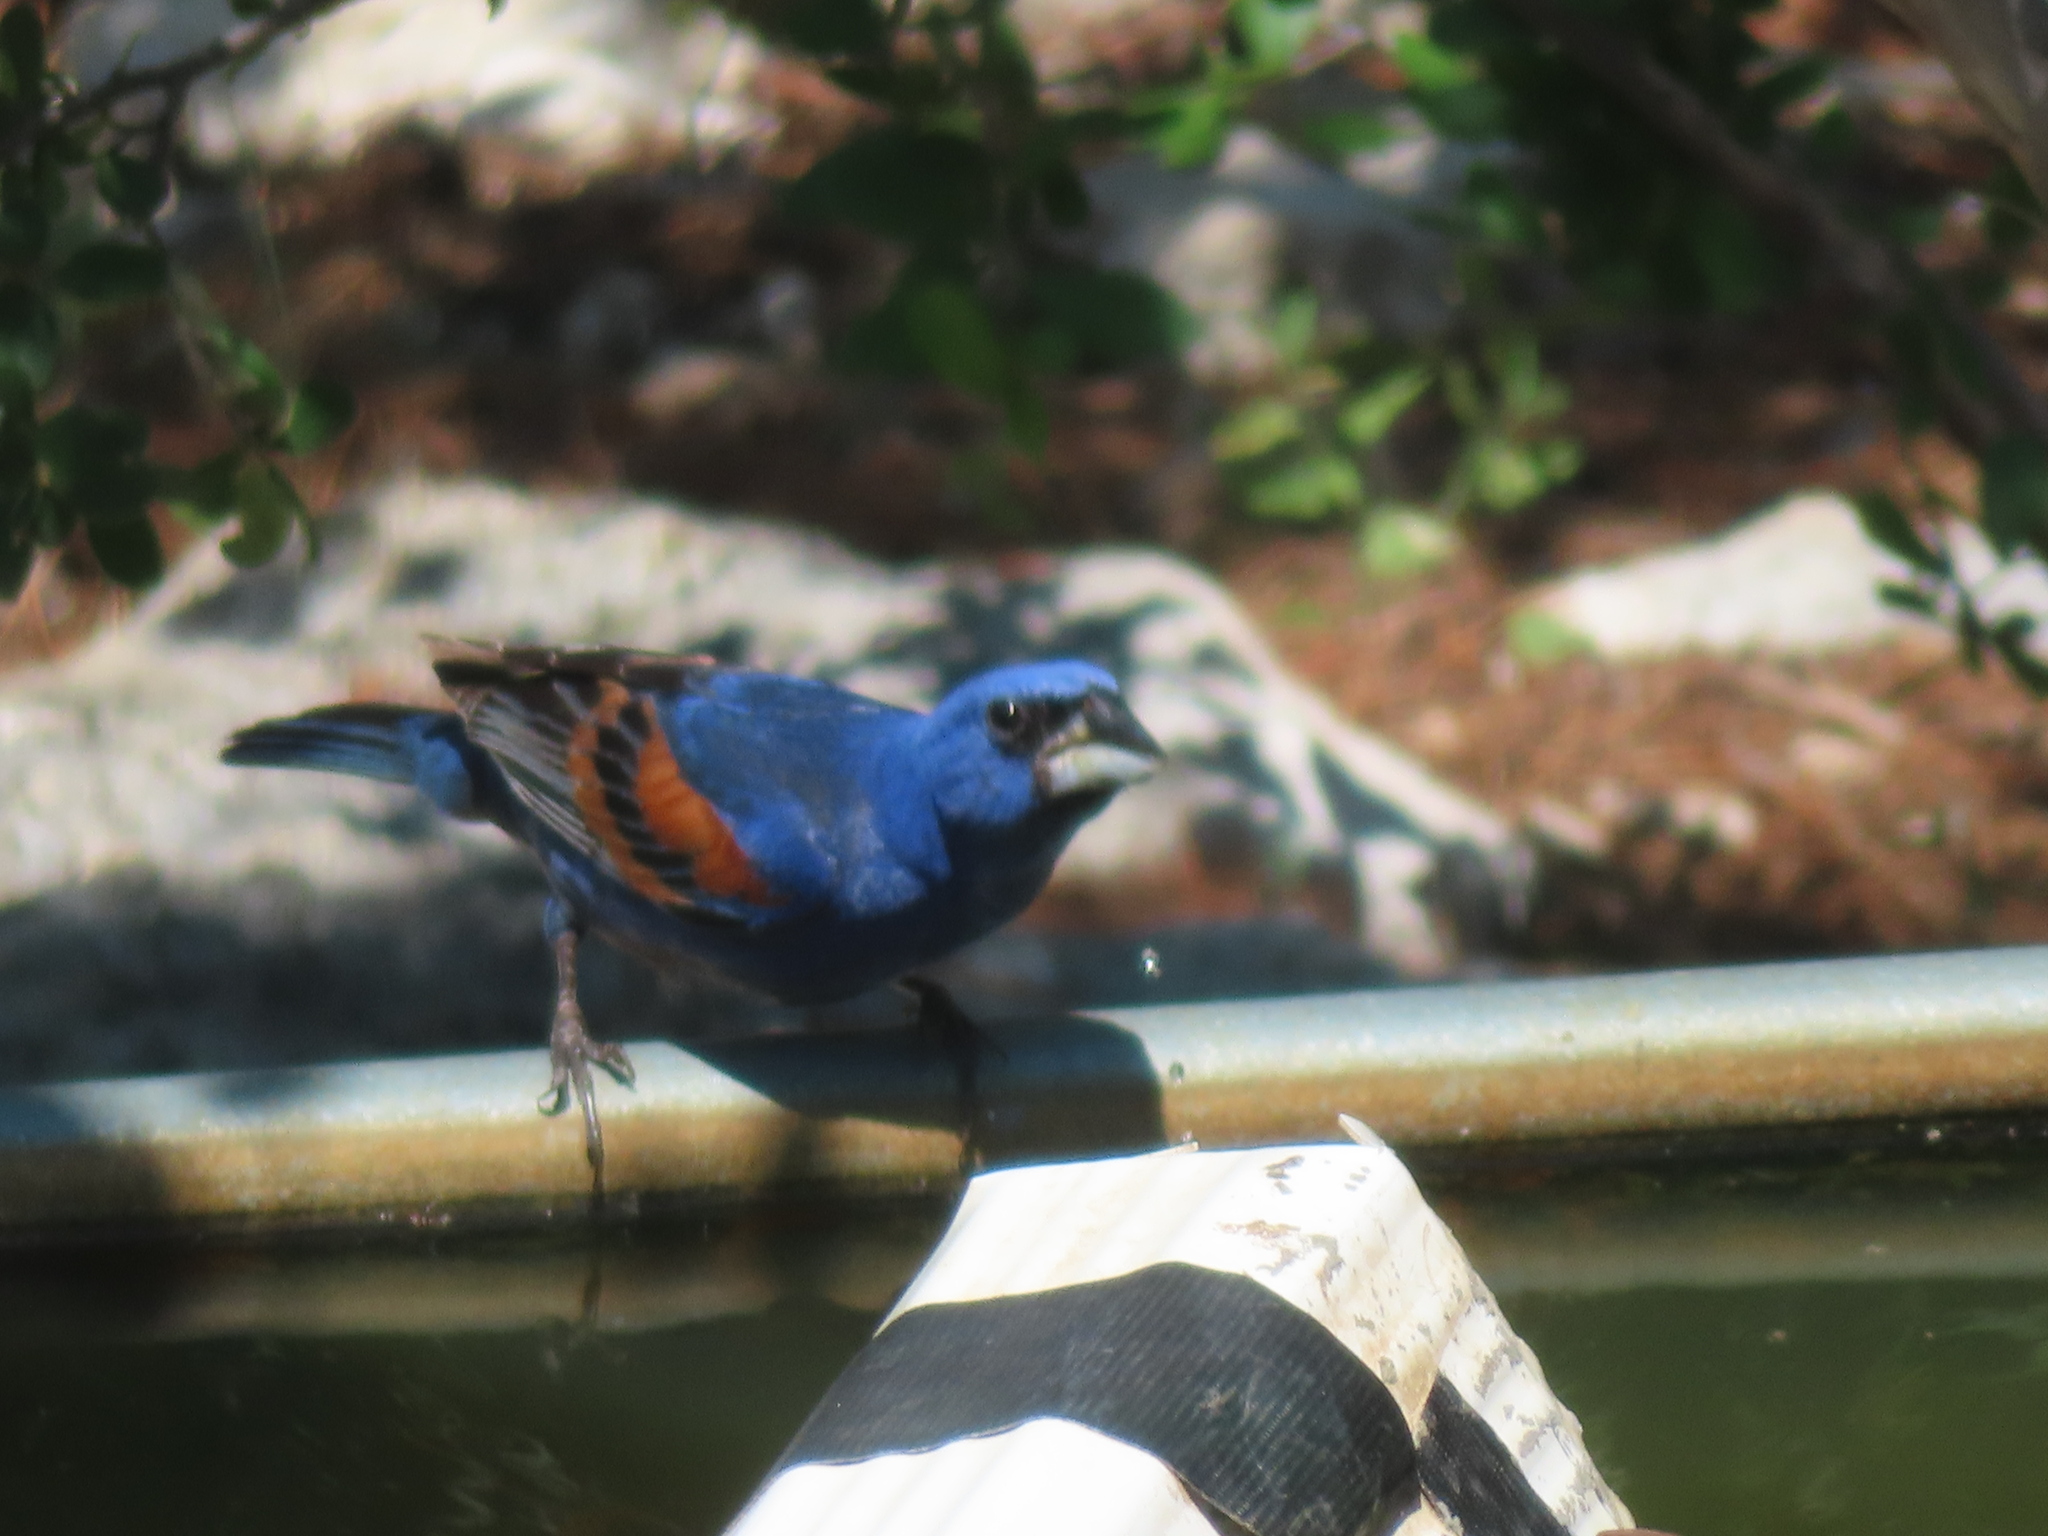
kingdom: Animalia
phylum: Chordata
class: Aves
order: Passeriformes
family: Cardinalidae
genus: Passerina
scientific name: Passerina caerulea
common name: Blue grosbeak
